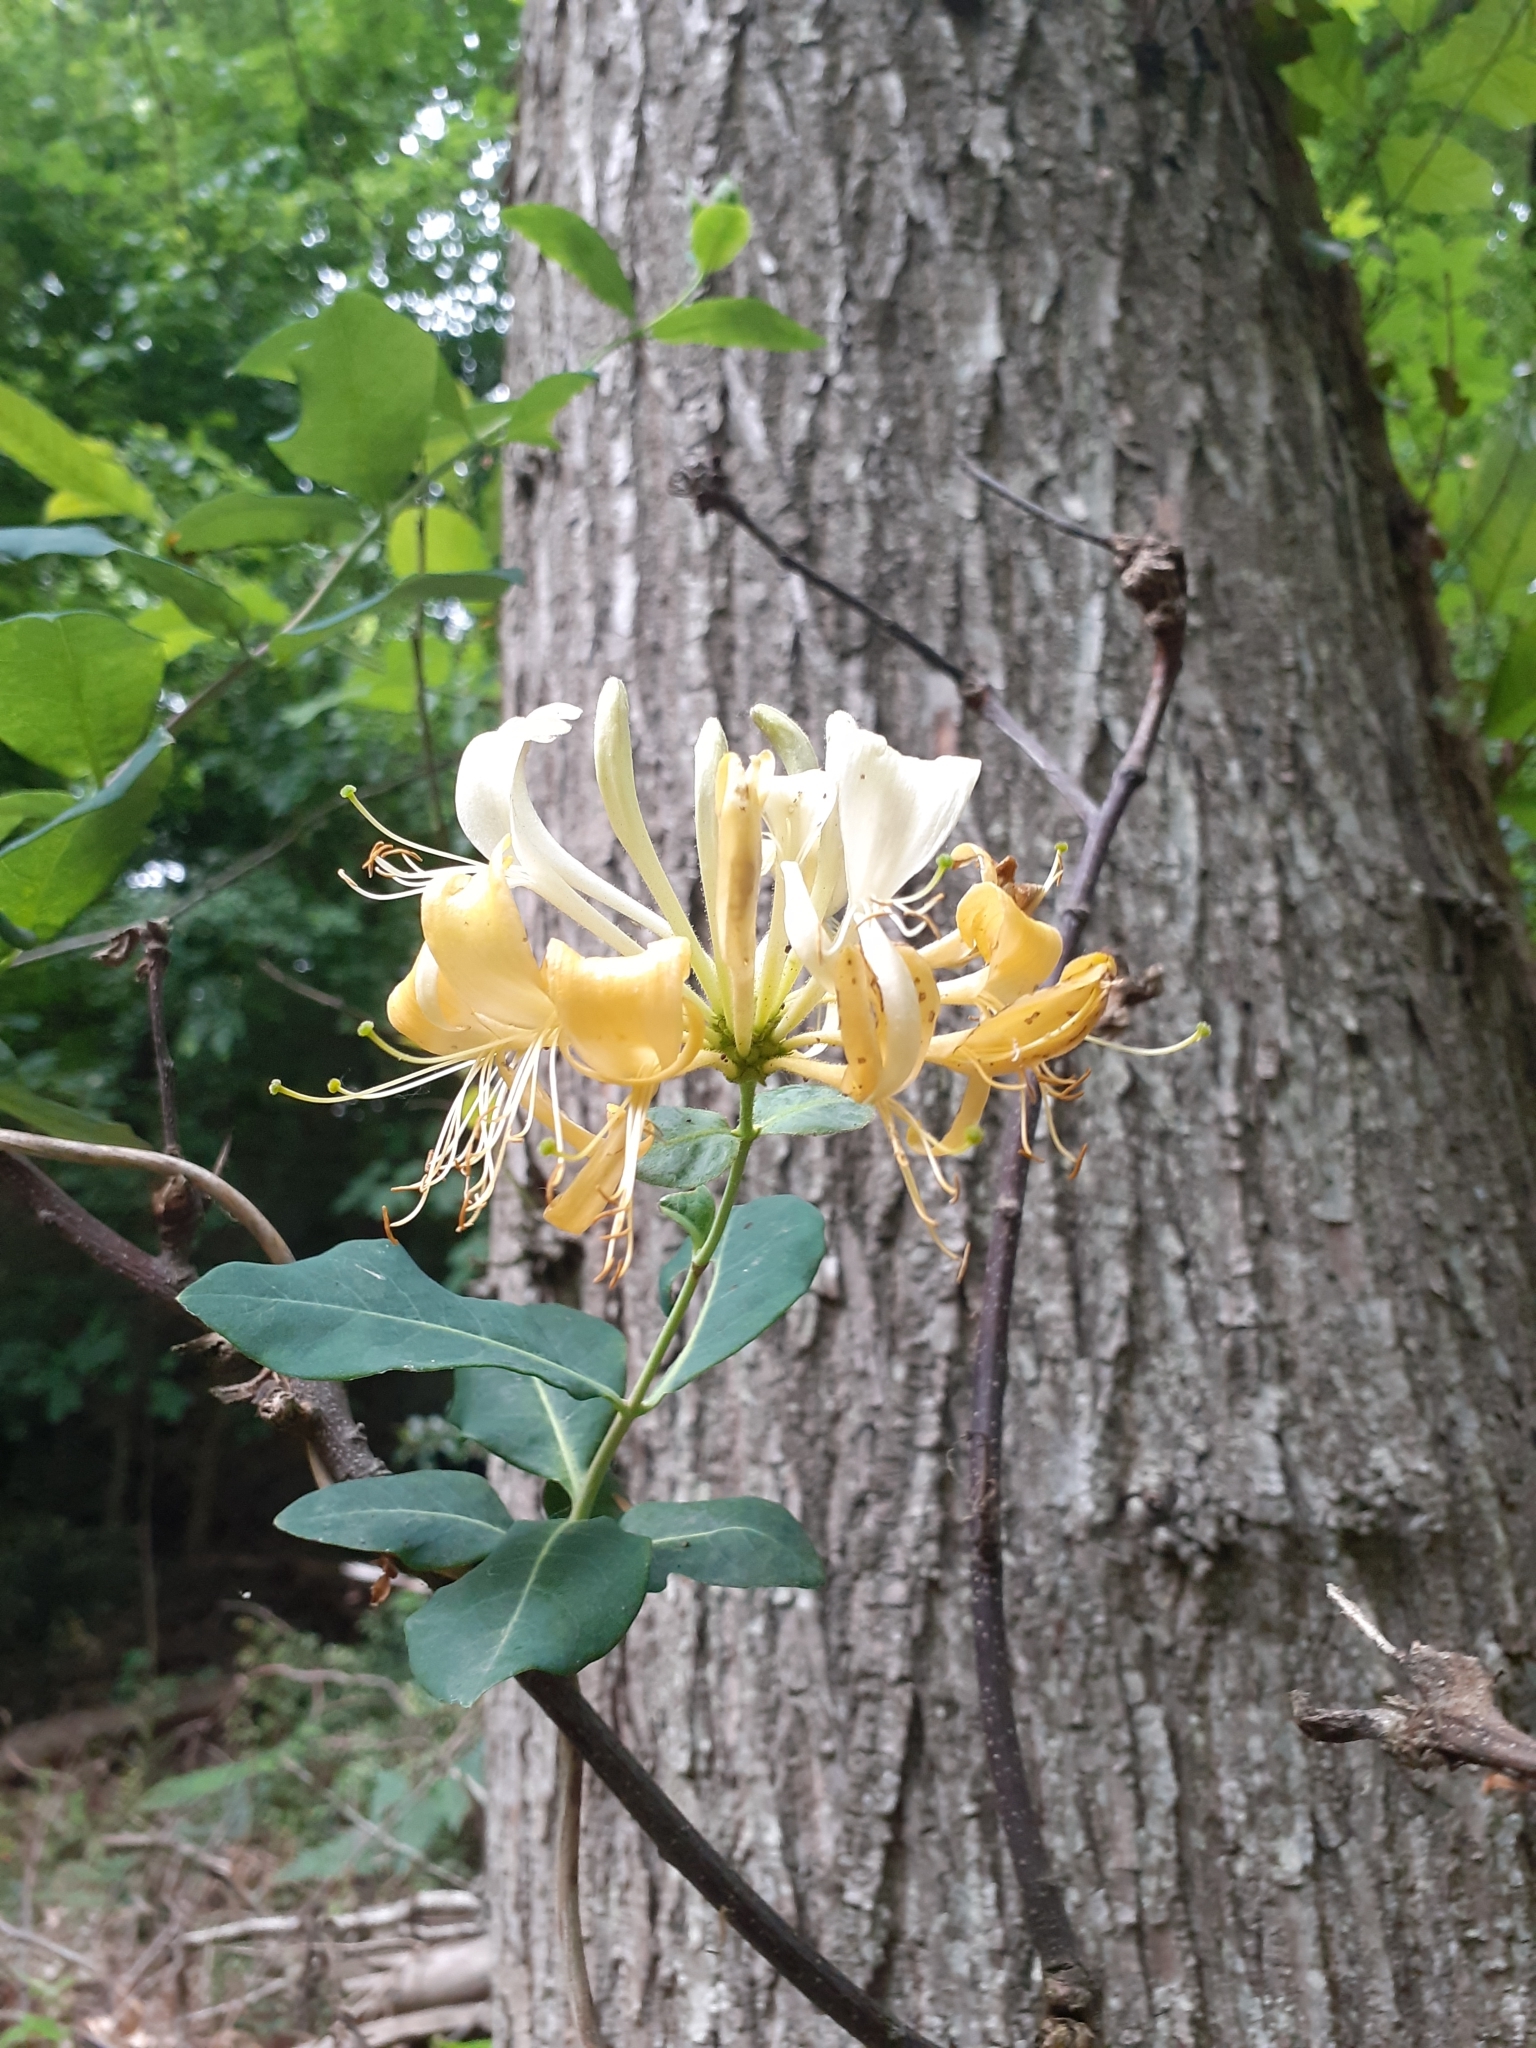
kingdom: Plantae
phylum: Tracheophyta
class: Magnoliopsida
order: Dipsacales
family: Caprifoliaceae
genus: Lonicera
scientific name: Lonicera periclymenum
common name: European honeysuckle
